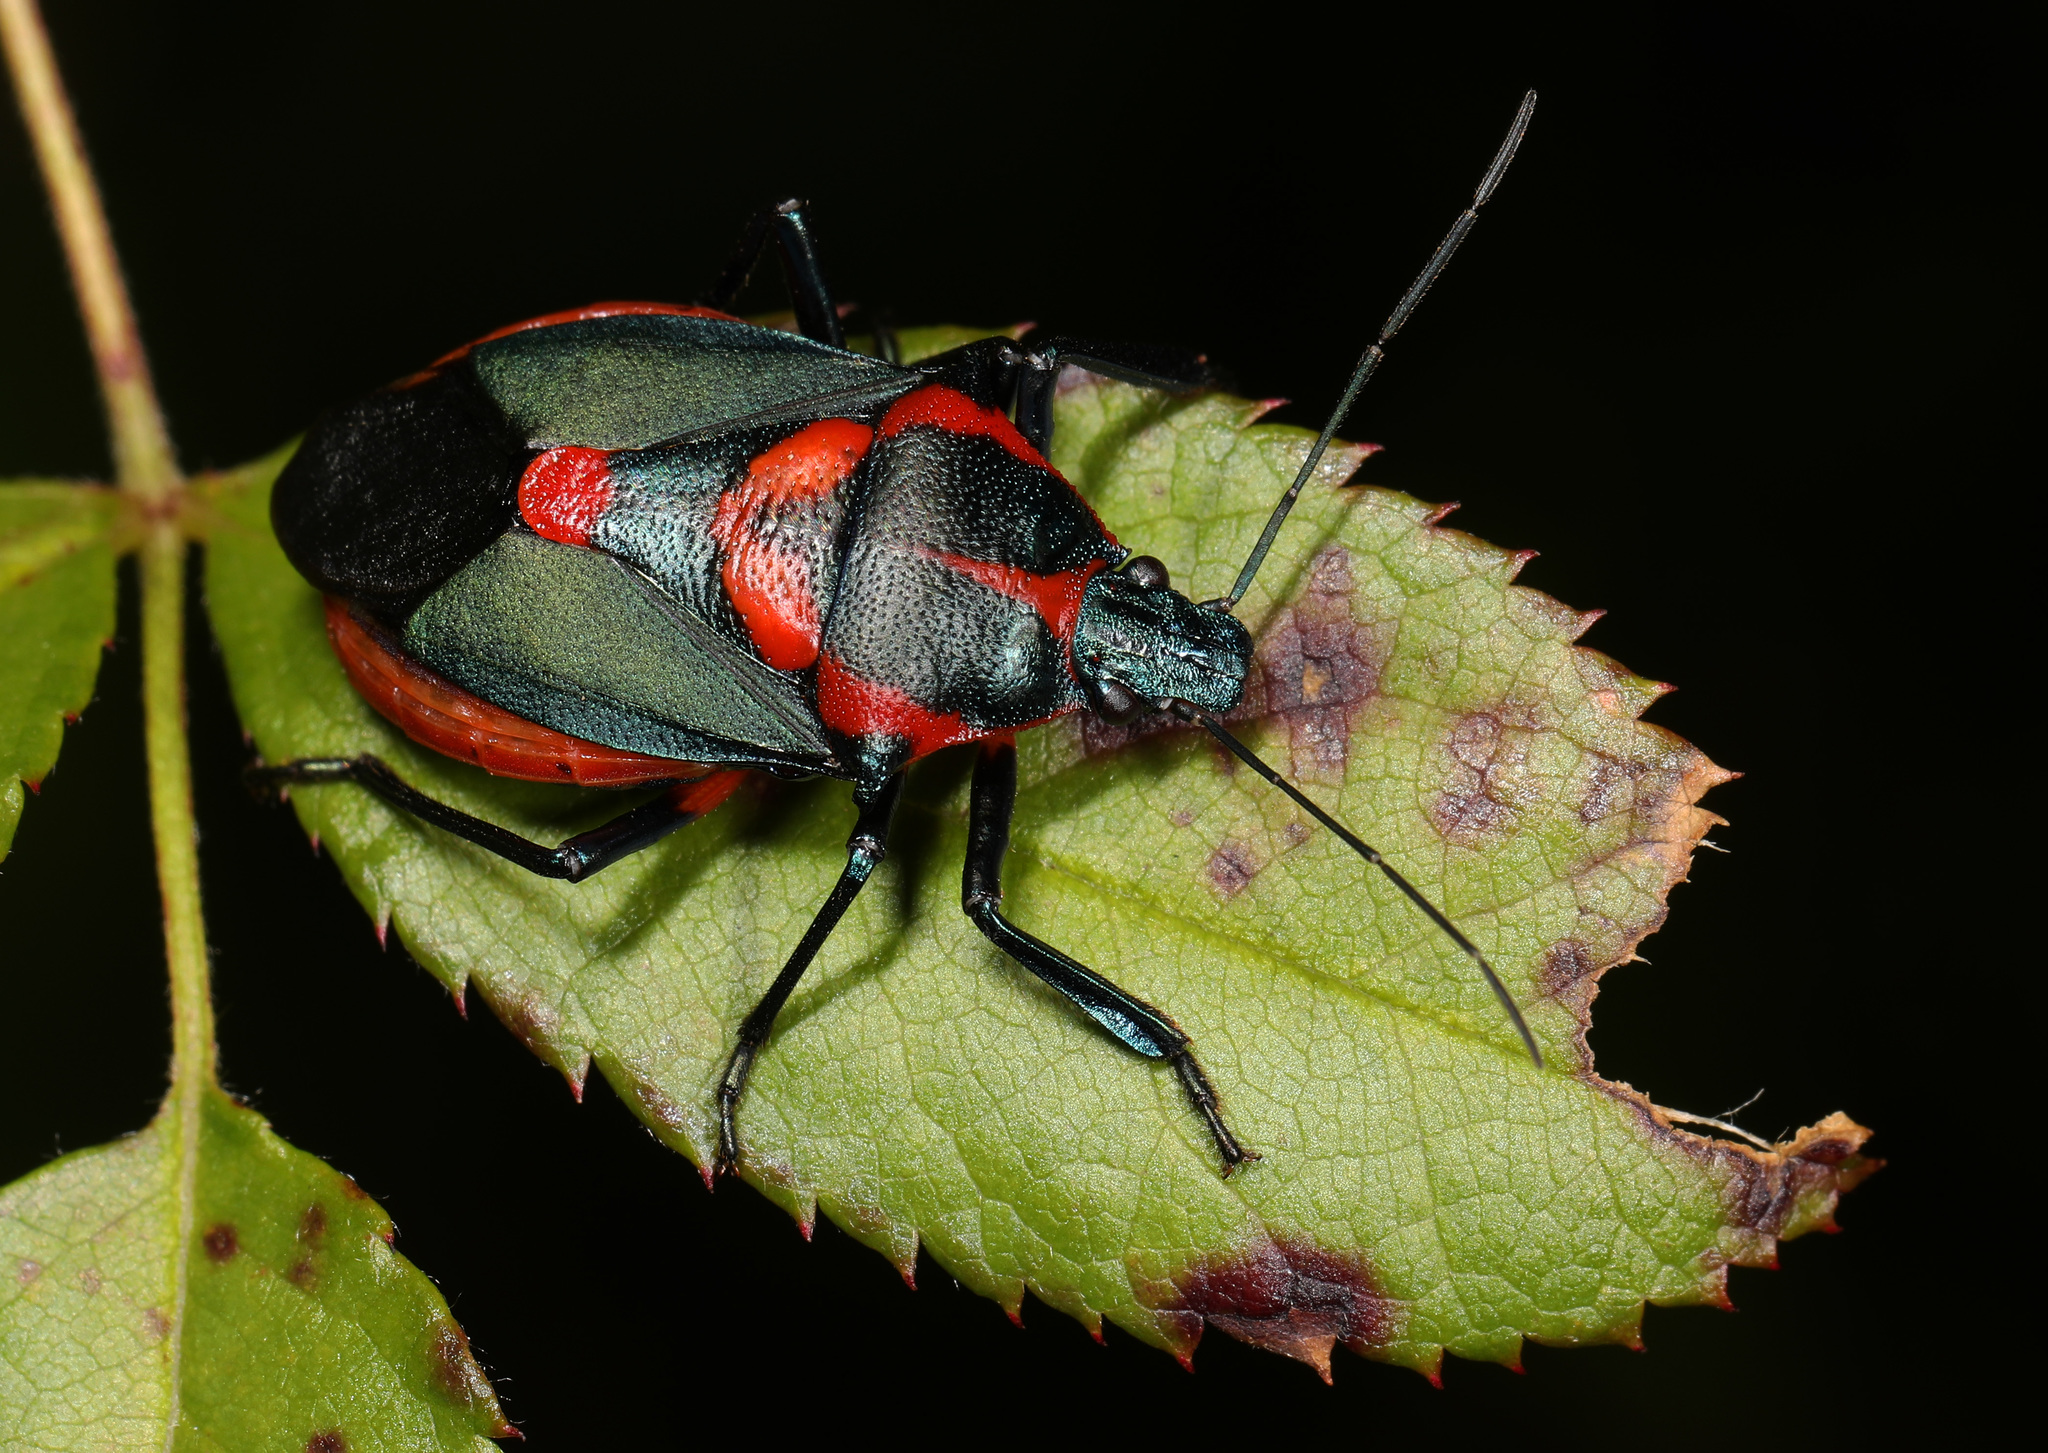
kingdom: Animalia
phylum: Arthropoda
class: Insecta
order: Hemiptera
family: Pentatomidae
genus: Euthyrhynchus
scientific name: Euthyrhynchus floridanus
